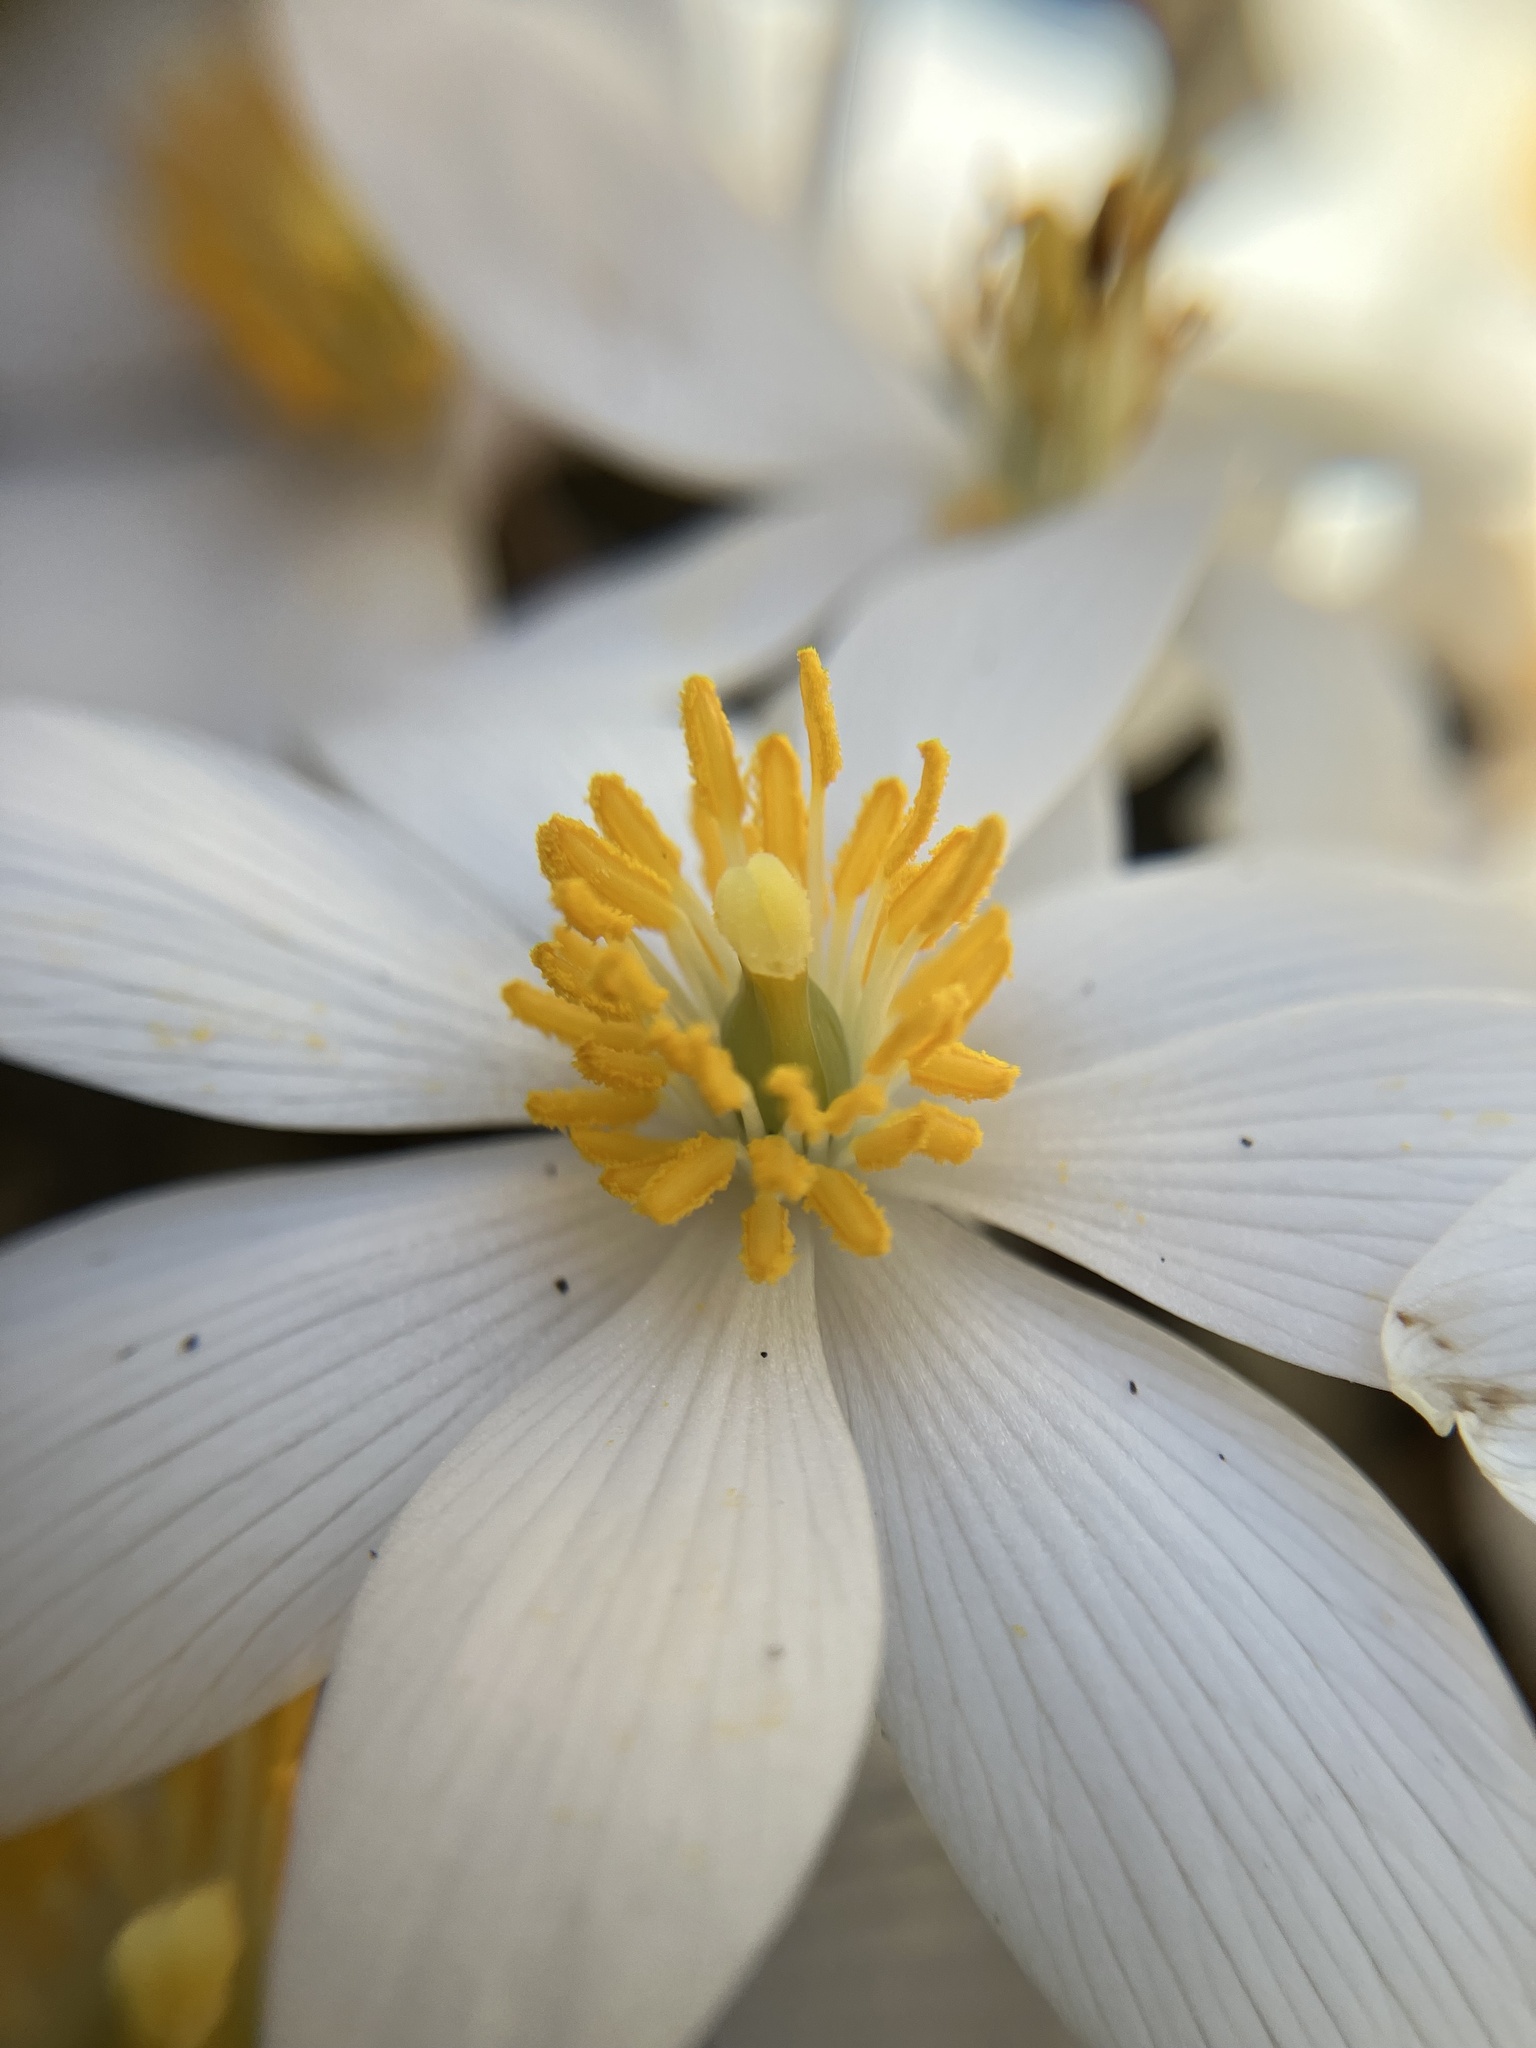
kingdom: Plantae
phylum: Tracheophyta
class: Magnoliopsida
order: Ranunculales
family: Papaveraceae
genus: Sanguinaria
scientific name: Sanguinaria canadensis
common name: Bloodroot
